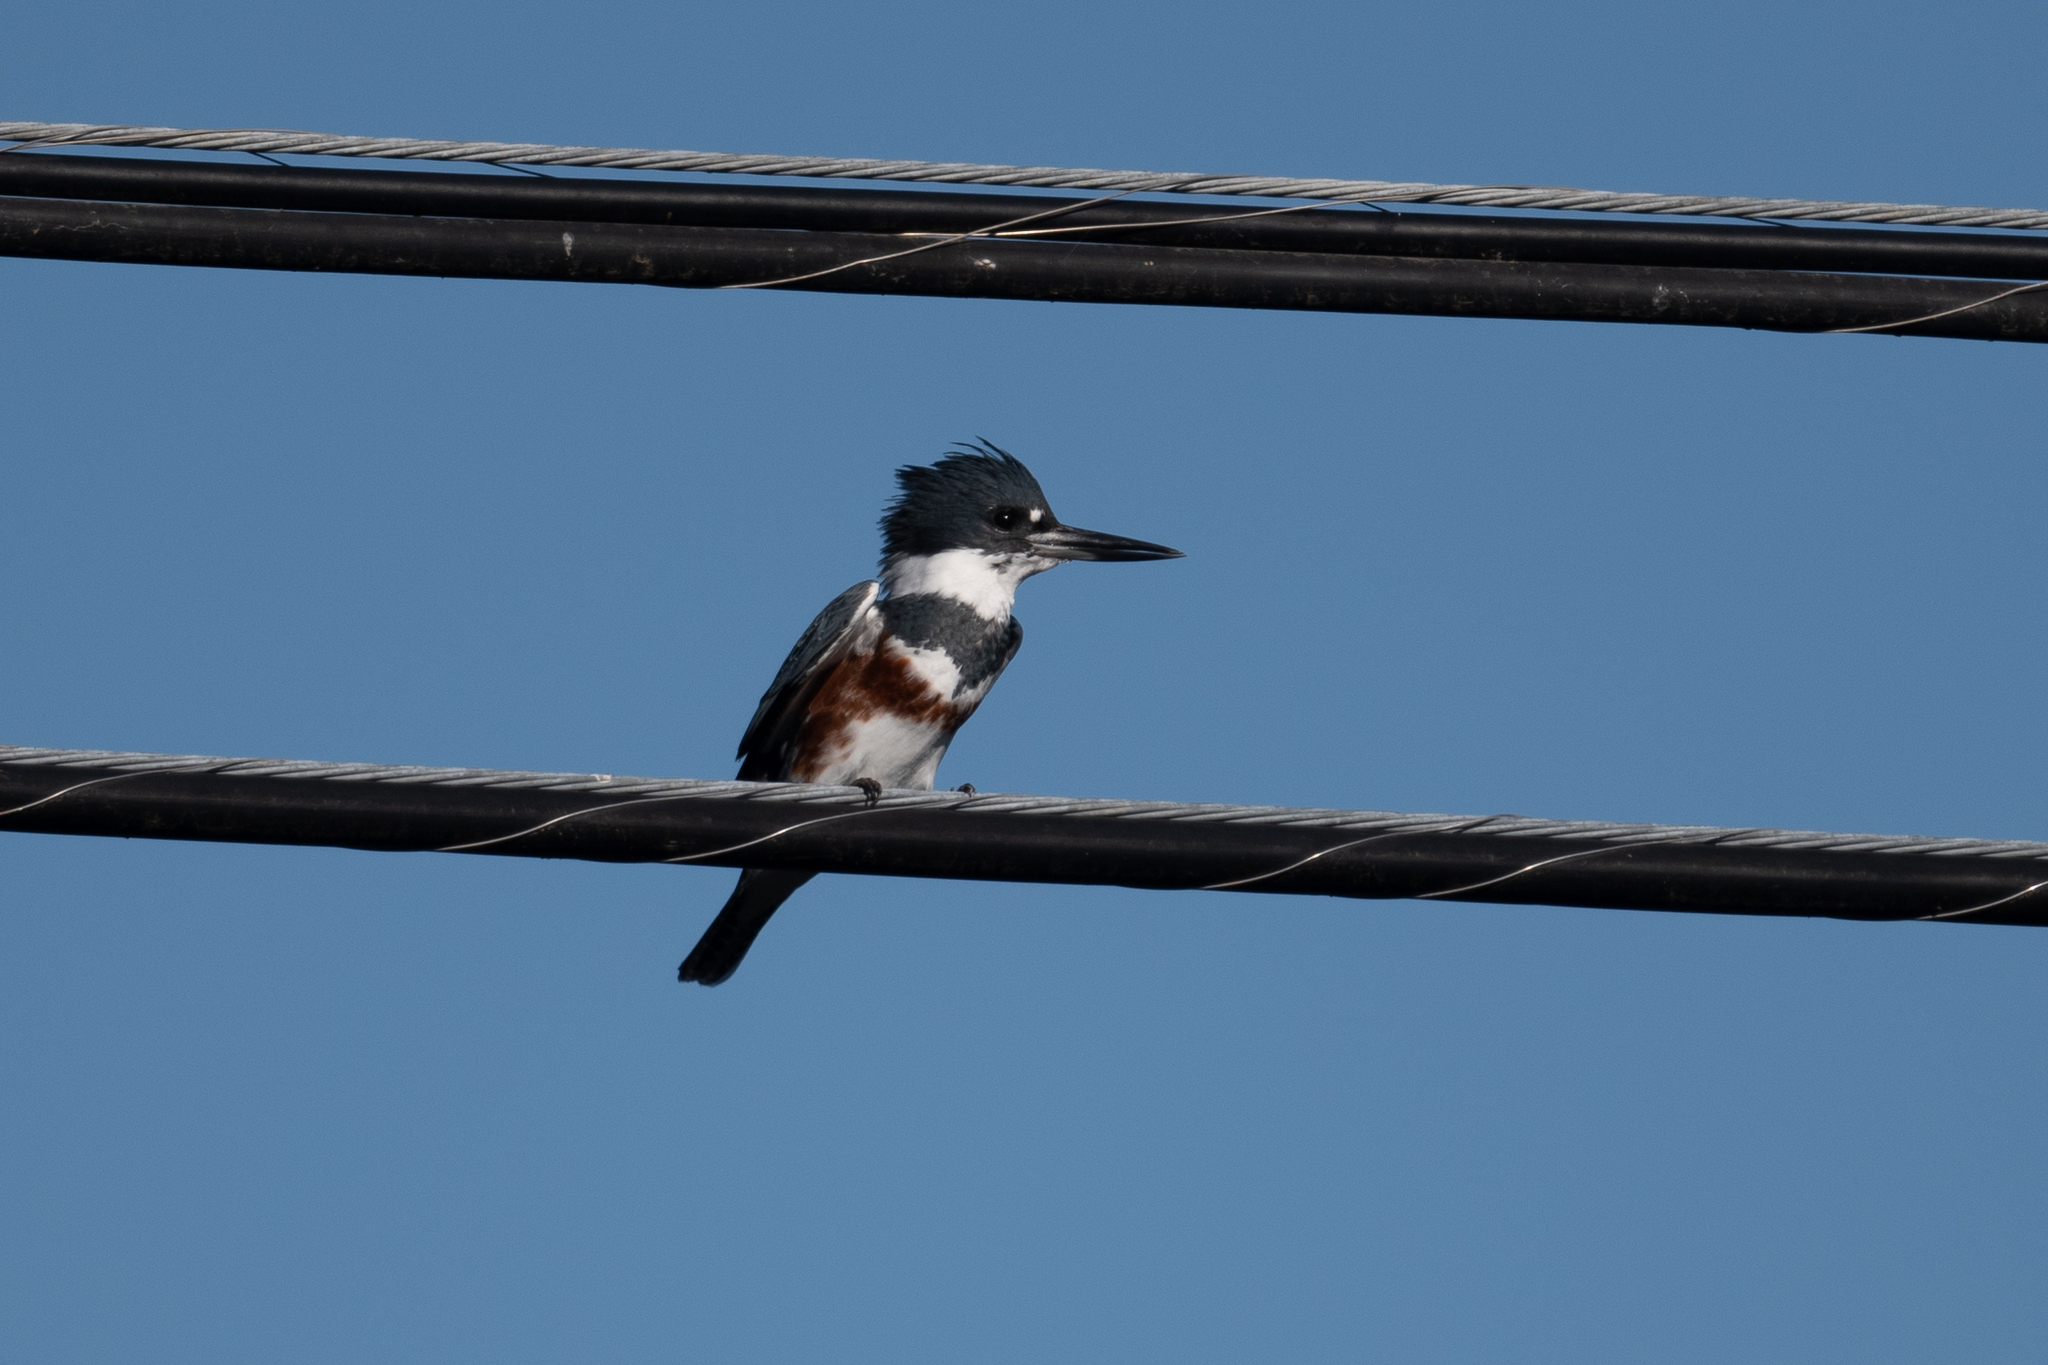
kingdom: Animalia
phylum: Chordata
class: Aves
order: Coraciiformes
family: Alcedinidae
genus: Megaceryle
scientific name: Megaceryle alcyon
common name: Belted kingfisher
